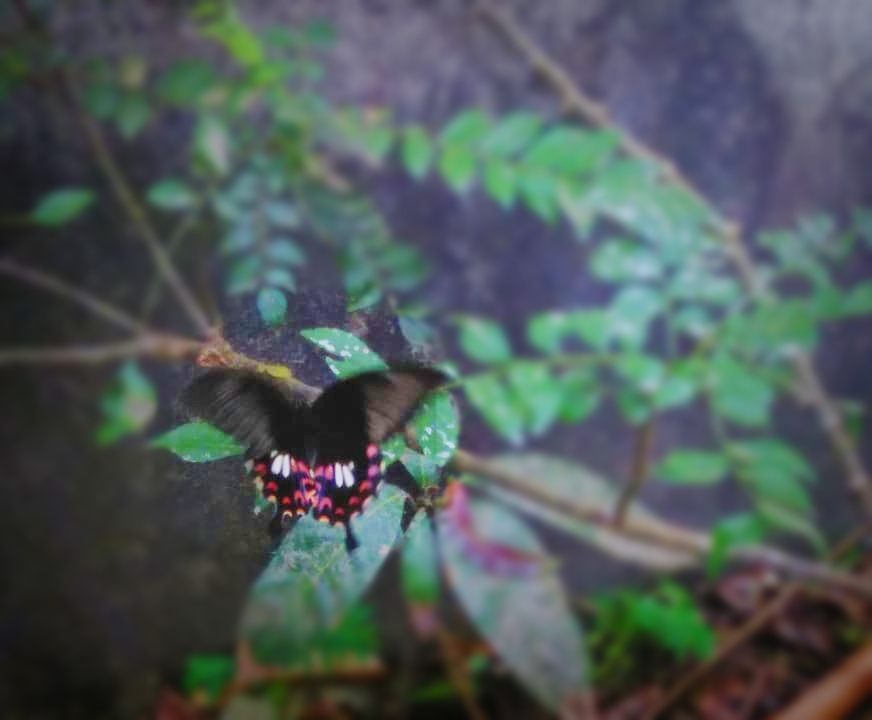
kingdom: Animalia
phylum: Arthropoda
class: Insecta
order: Lepidoptera
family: Papilionidae
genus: Papilio
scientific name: Papilio polytes
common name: Common mormon
